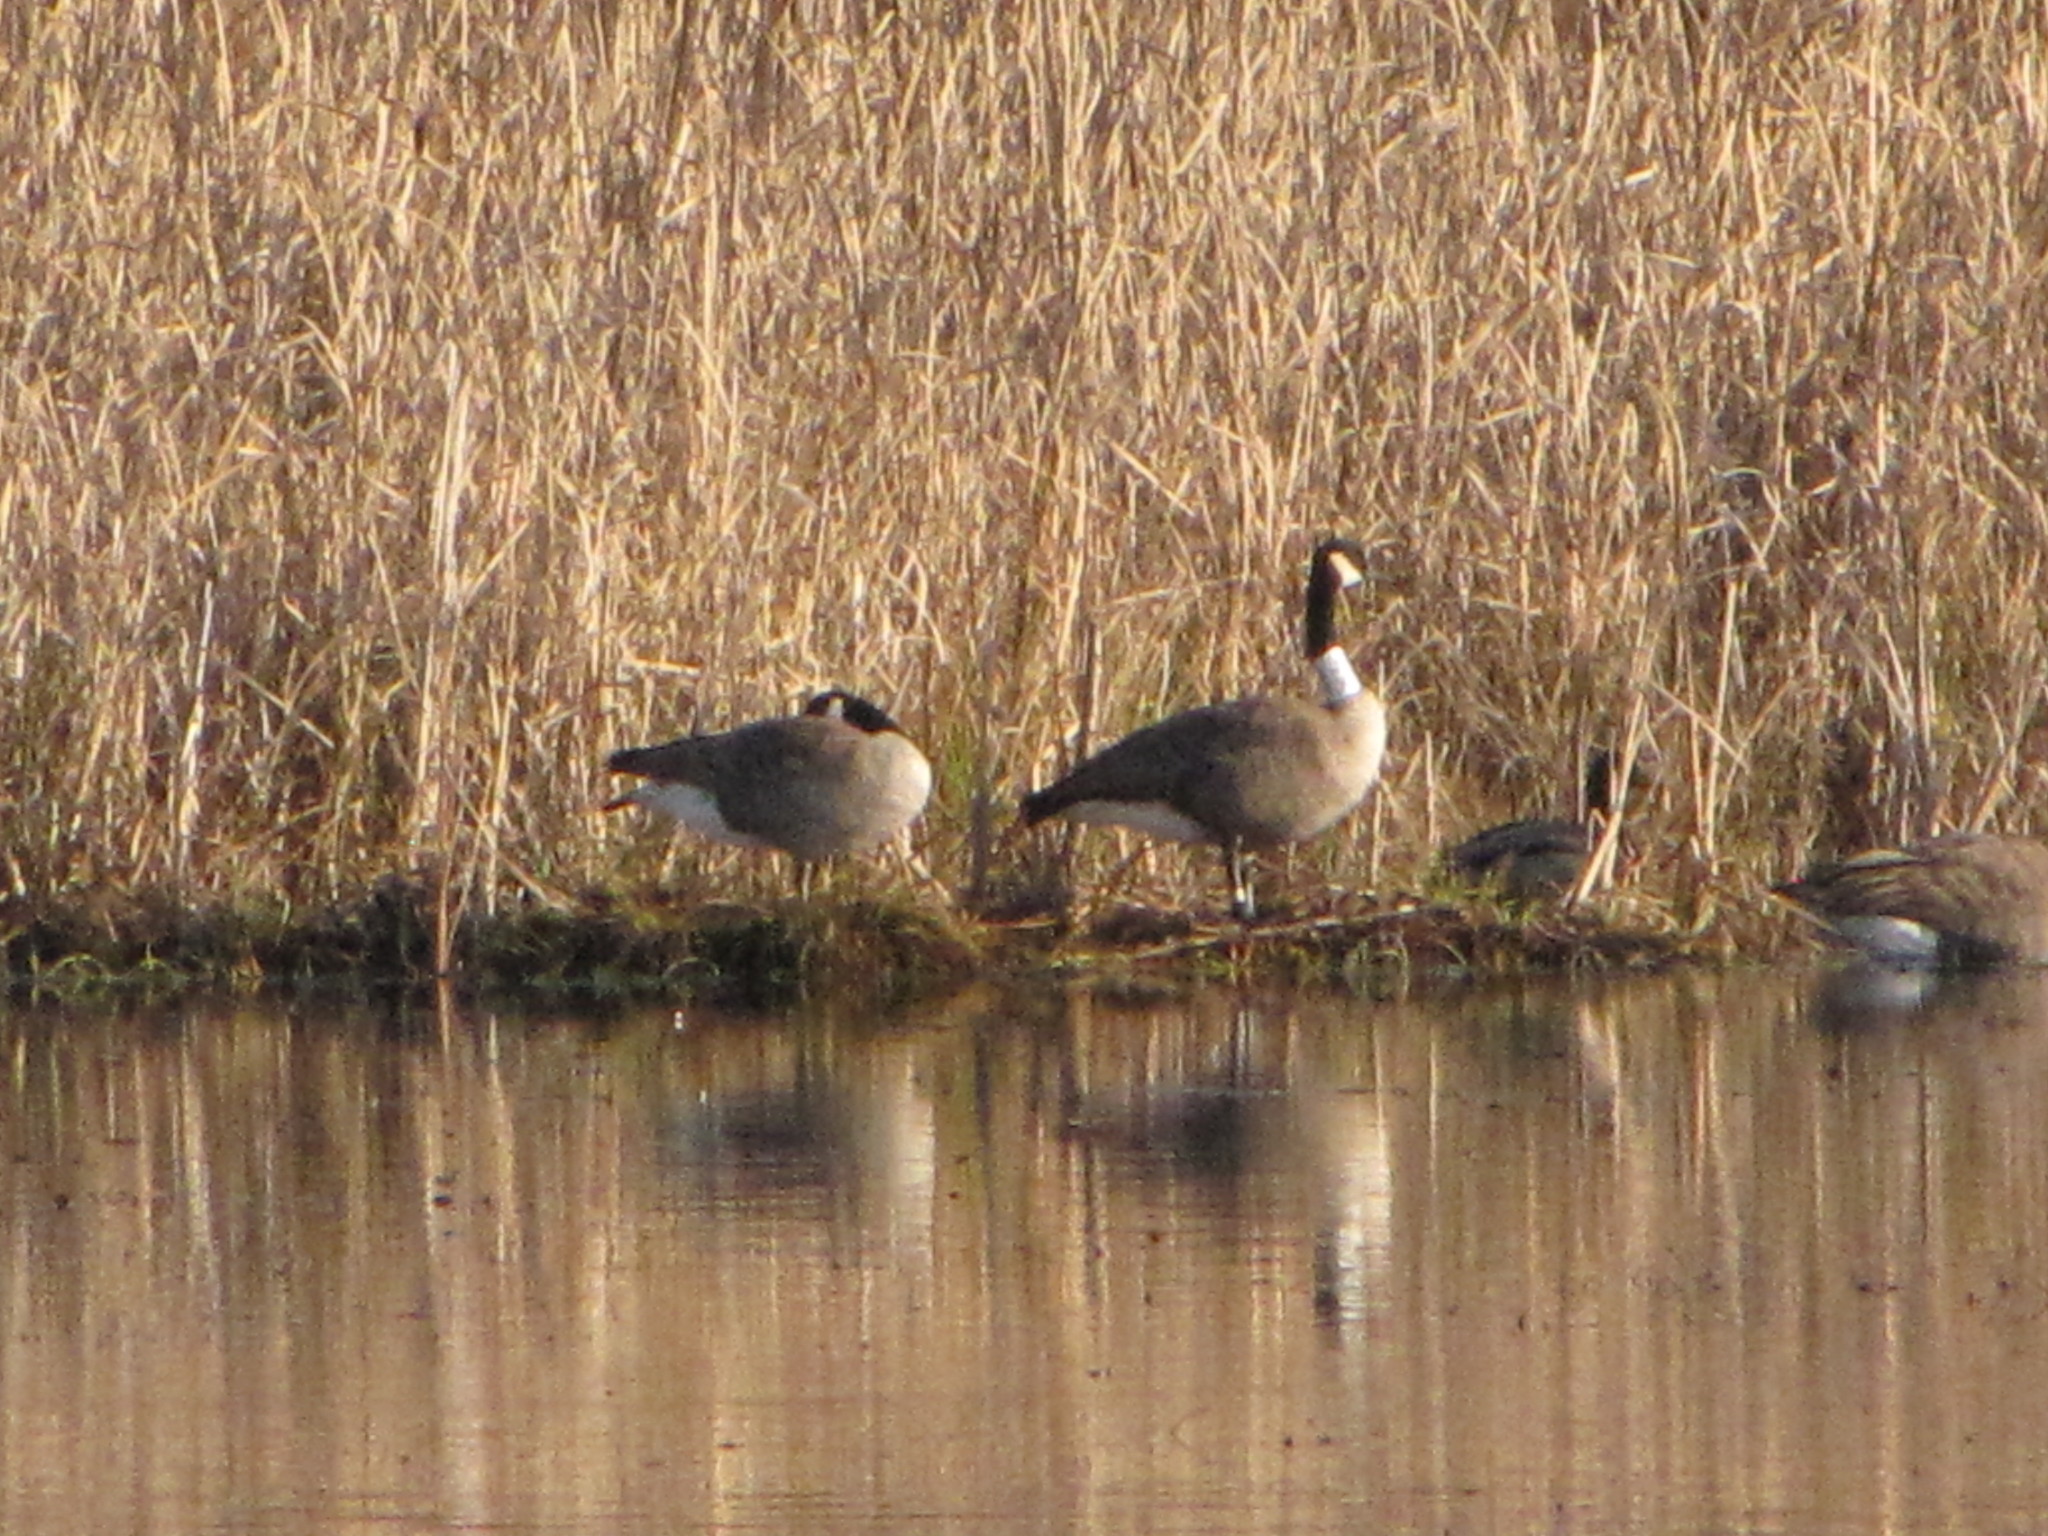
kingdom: Animalia
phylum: Chordata
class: Aves
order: Anseriformes
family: Anatidae
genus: Branta
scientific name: Branta canadensis
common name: Canada goose
